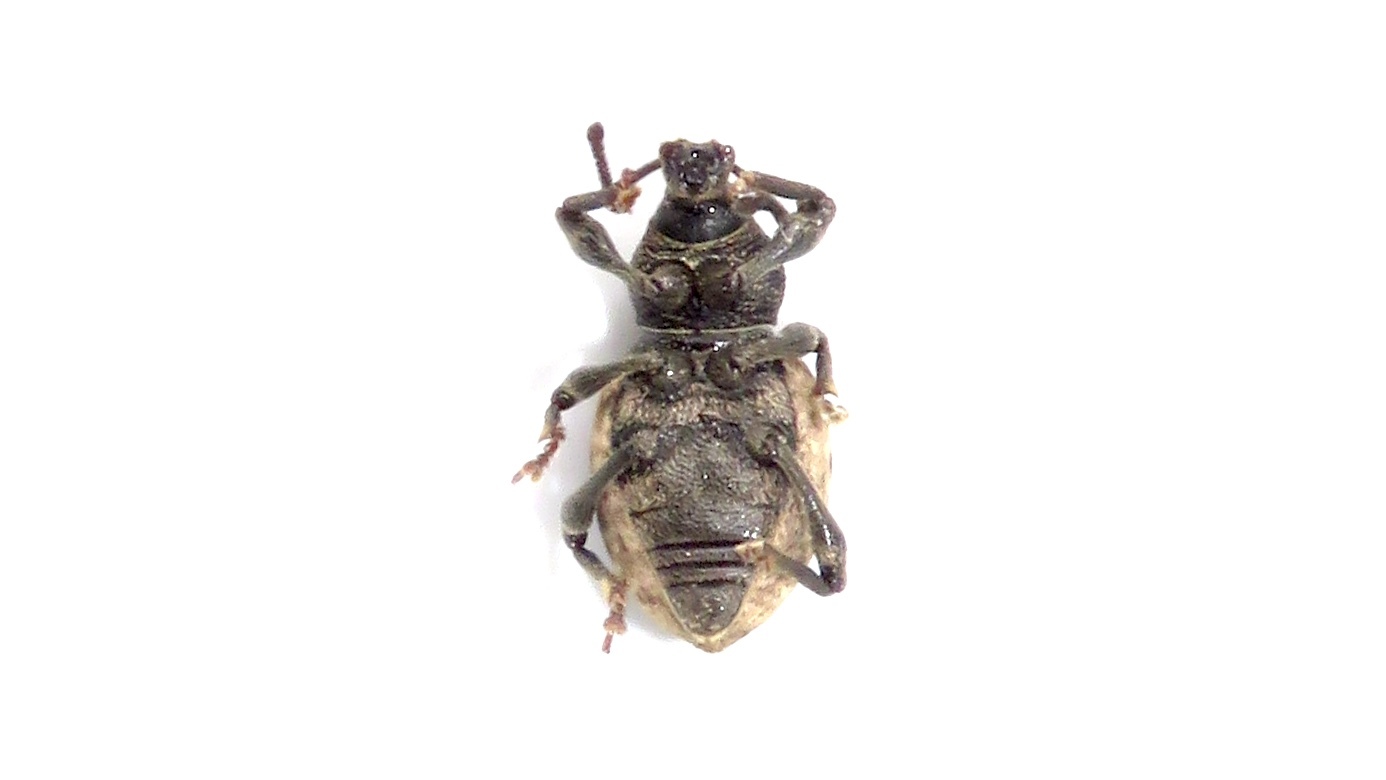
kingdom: Animalia
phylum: Arthropoda
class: Insecta
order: Coleoptera
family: Curculionidae
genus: Otiorhynchus
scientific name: Otiorhynchus raucus
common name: Weevil
